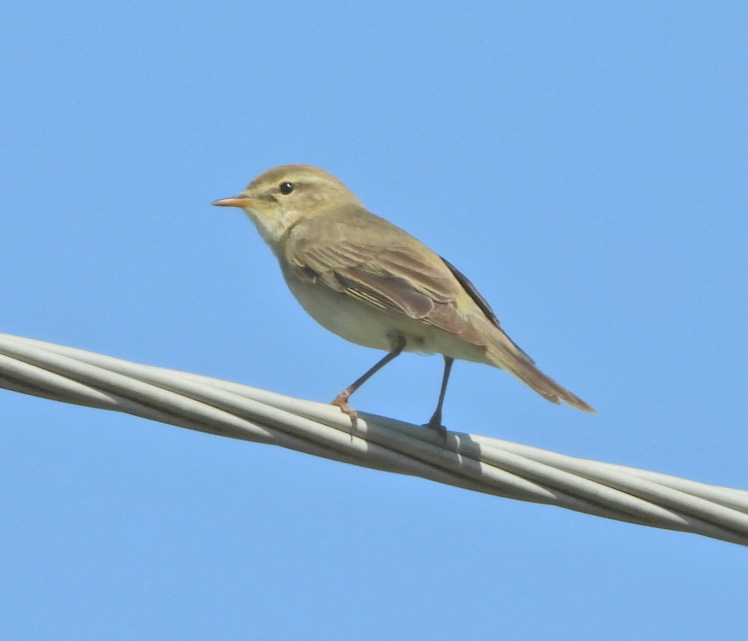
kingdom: Animalia
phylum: Chordata
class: Aves
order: Passeriformes
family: Acrocephalidae
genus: Iduna
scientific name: Iduna caligata
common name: Booted warbler
